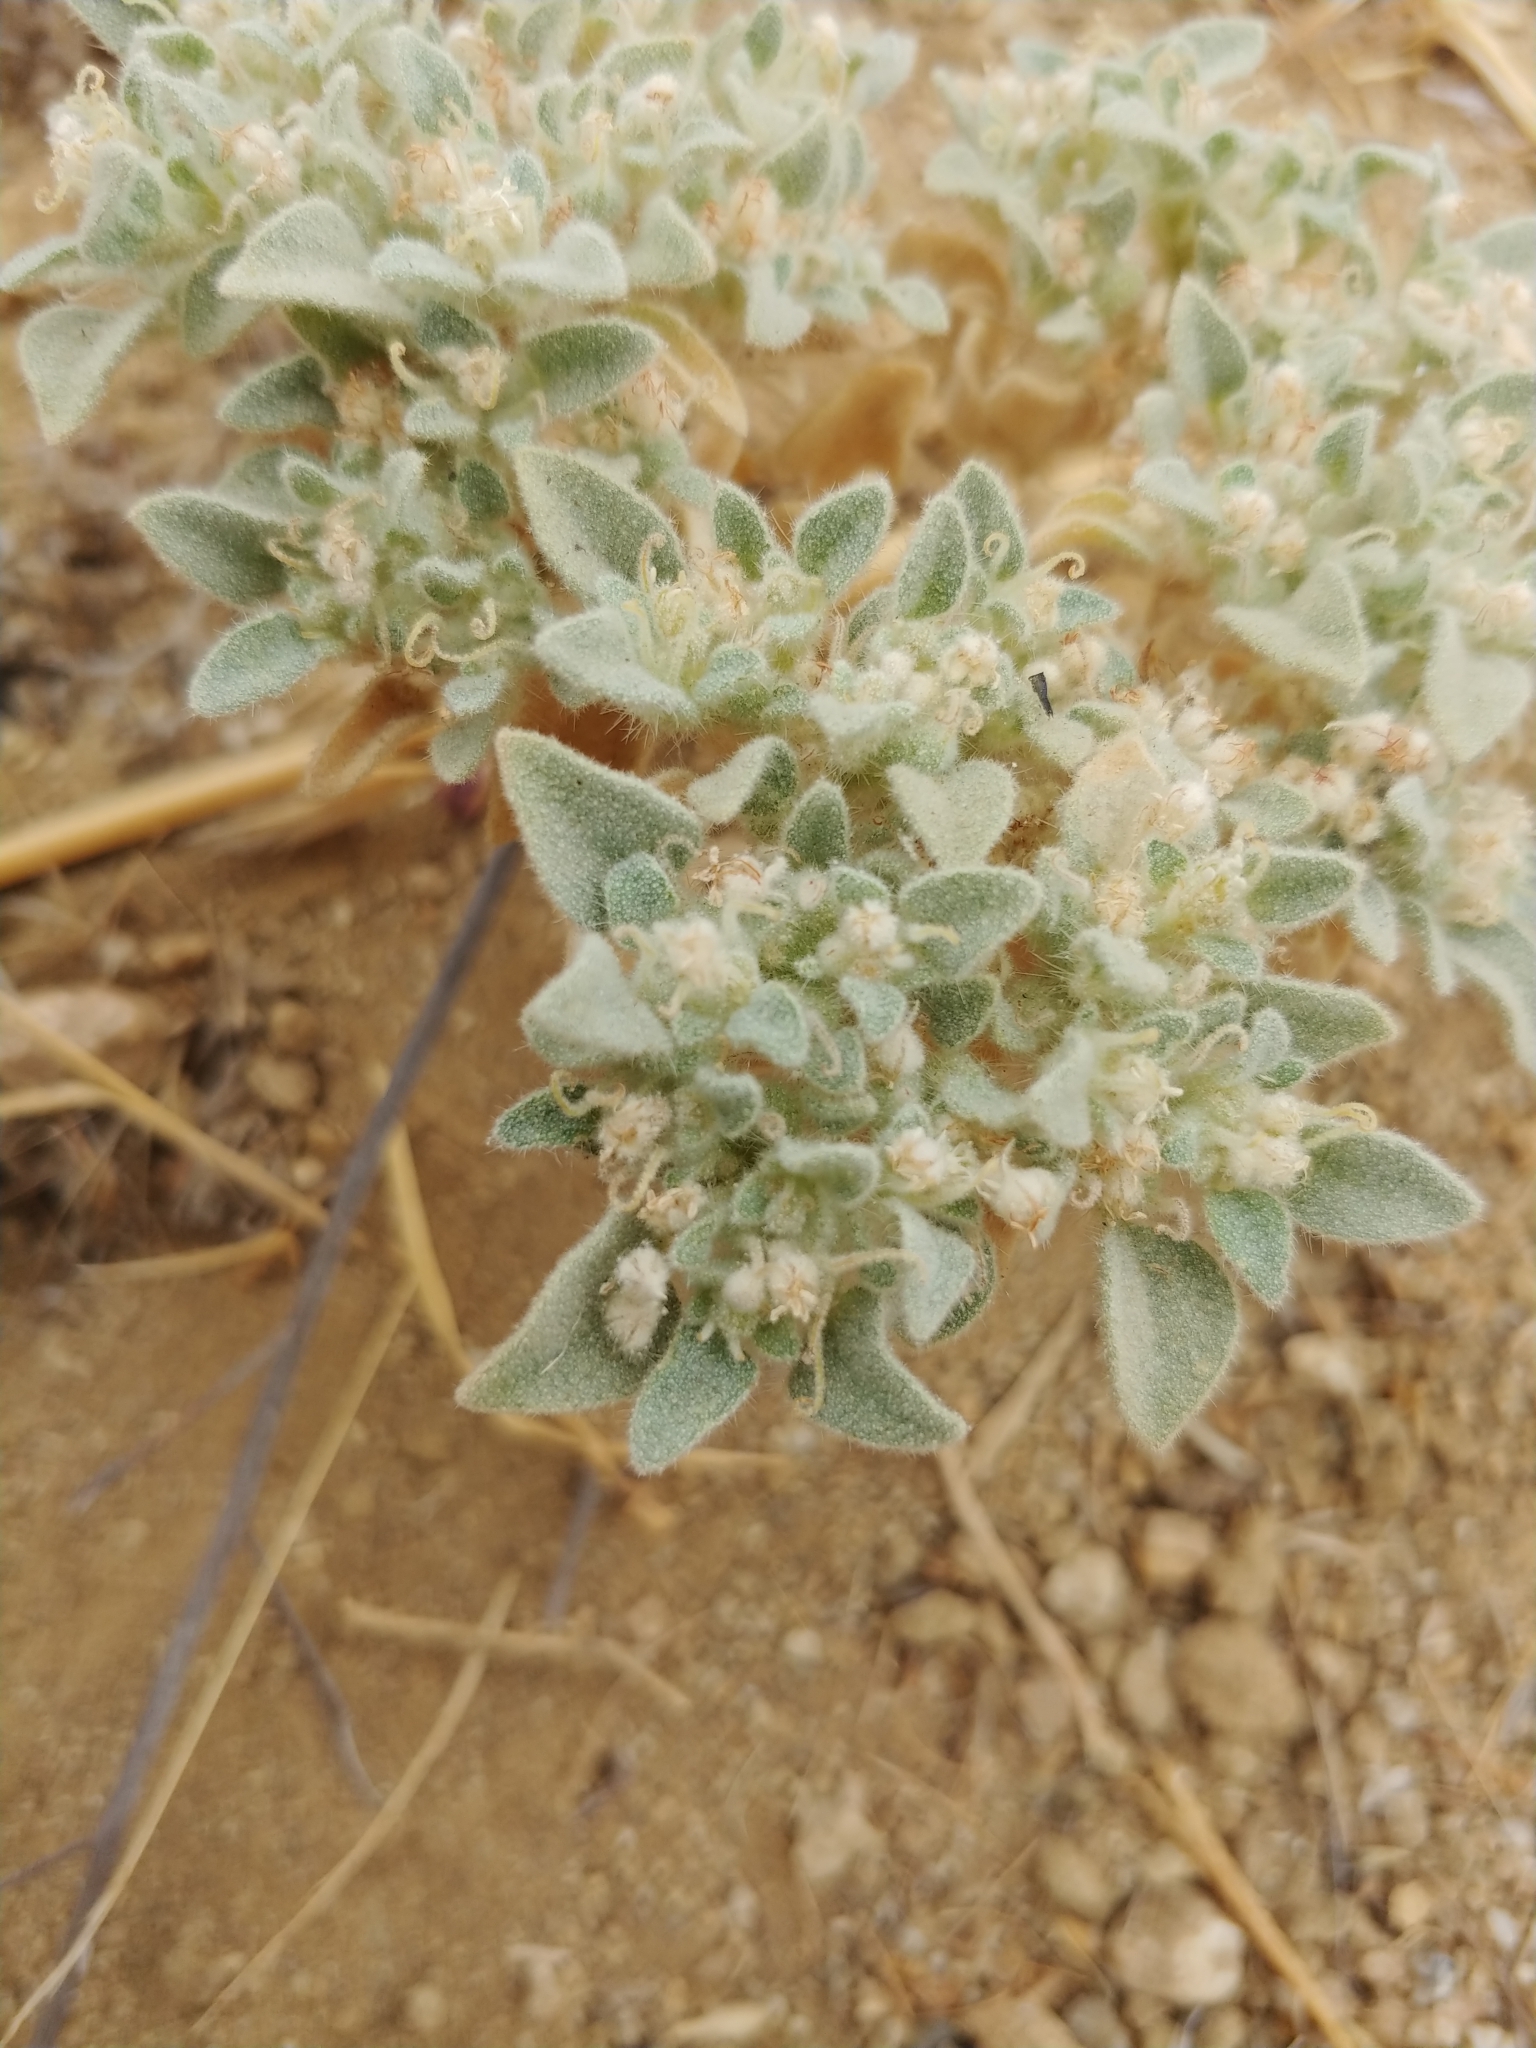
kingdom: Plantae
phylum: Tracheophyta
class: Magnoliopsida
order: Malpighiales
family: Euphorbiaceae
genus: Croton
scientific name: Croton setiger
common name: Dove weed
